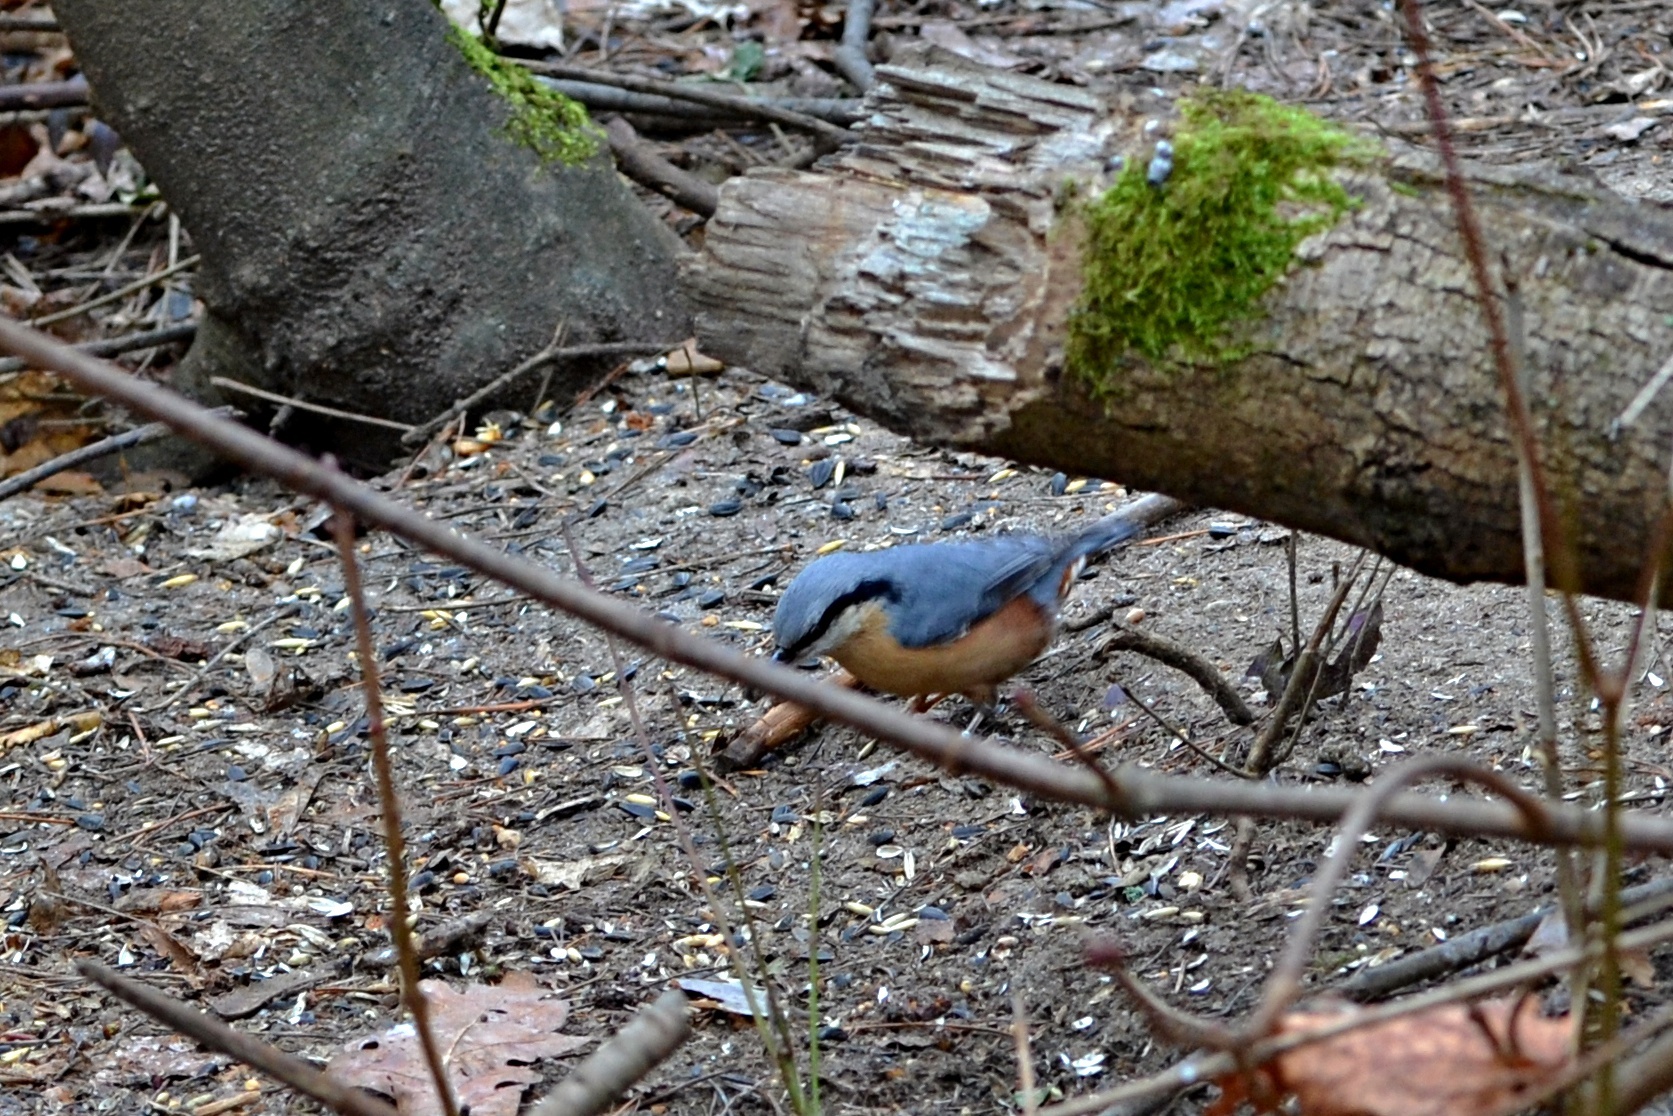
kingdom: Animalia
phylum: Chordata
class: Aves
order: Passeriformes
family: Sittidae
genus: Sitta
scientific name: Sitta europaea
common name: Eurasian nuthatch
